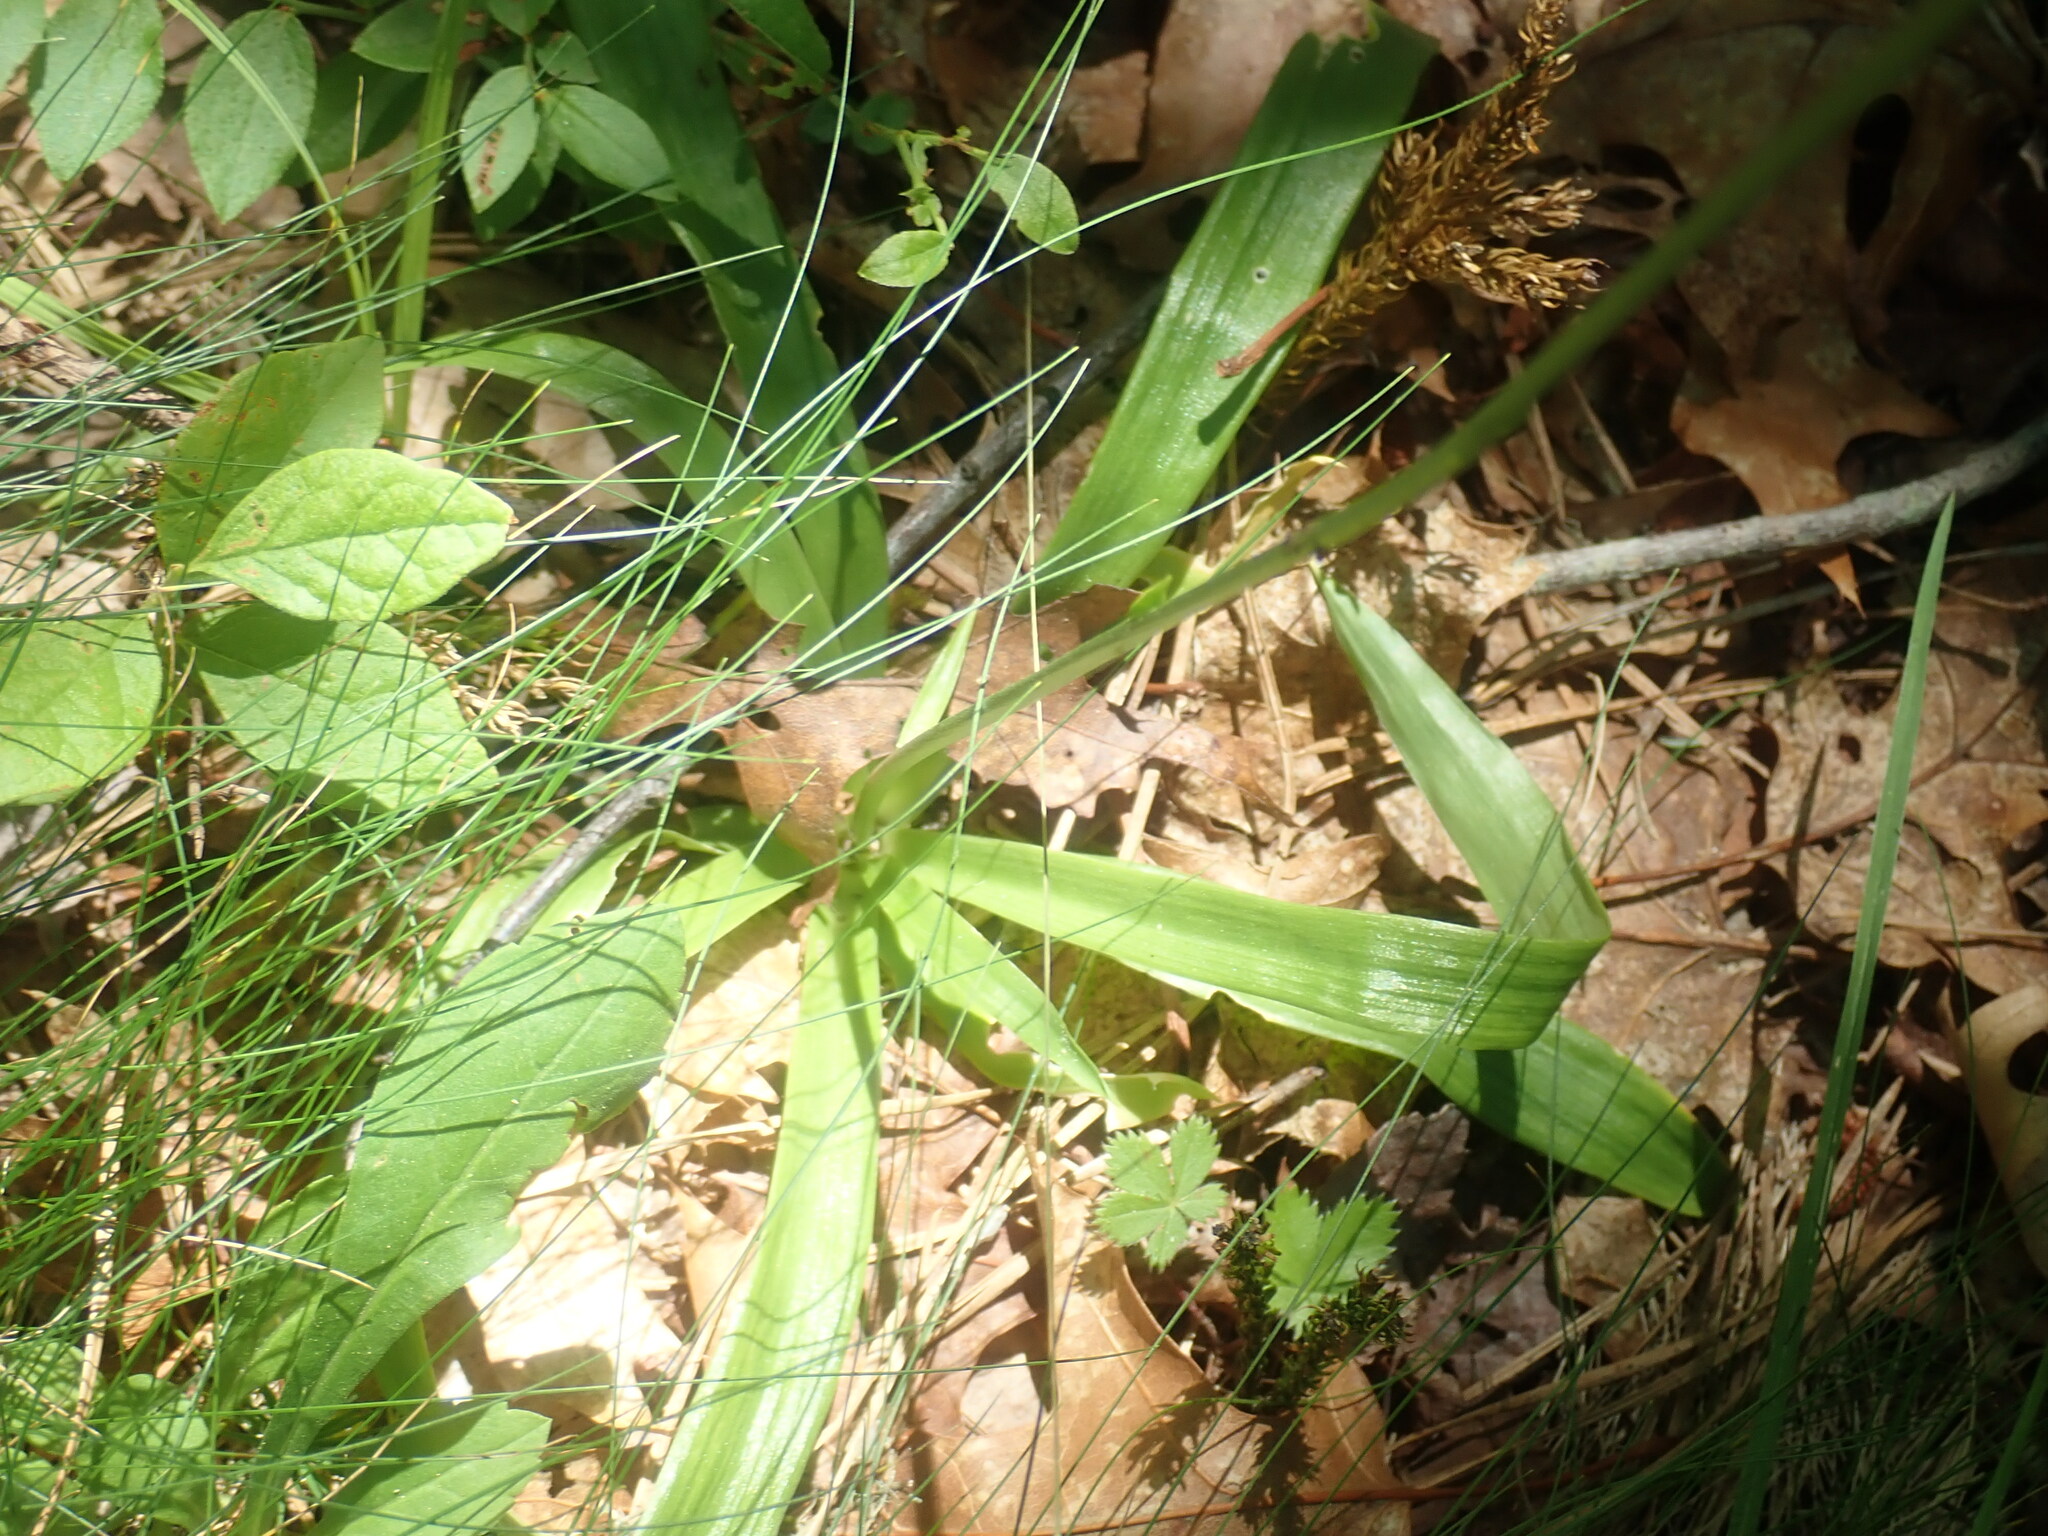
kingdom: Plantae
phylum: Tracheophyta
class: Liliopsida
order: Dioscoreales
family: Nartheciaceae
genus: Aletris
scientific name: Aletris farinosa
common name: Colicroot
